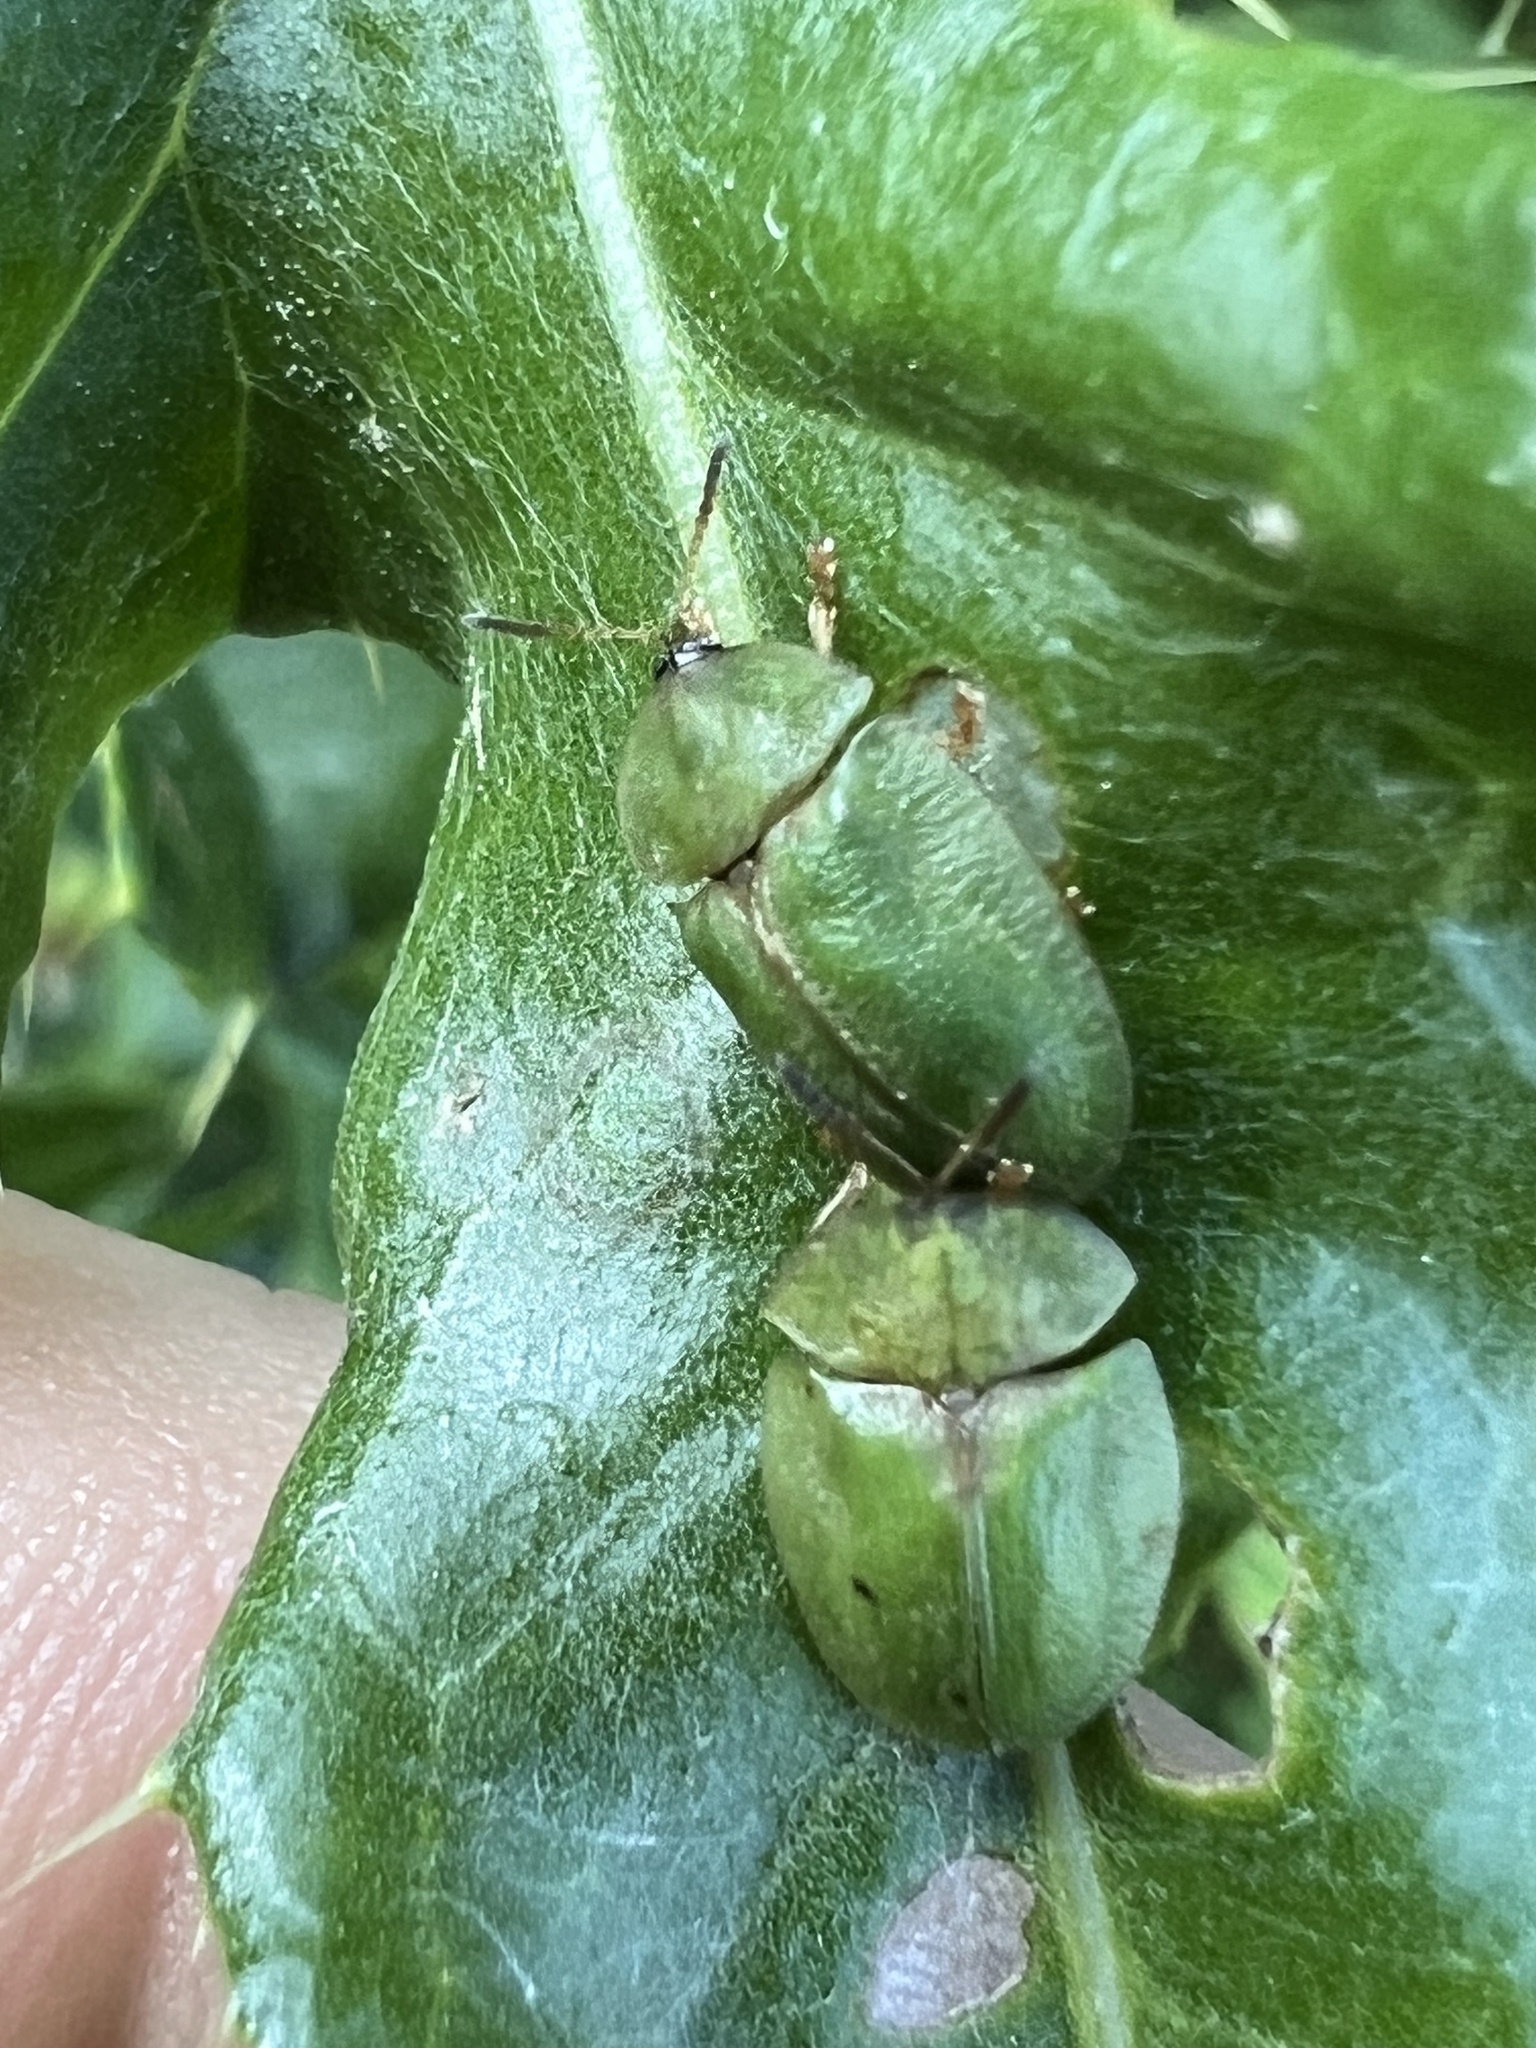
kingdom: Animalia
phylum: Arthropoda
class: Insecta
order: Coleoptera
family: Chrysomelidae
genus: Cassida
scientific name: Cassida rubiginosa
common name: Thistle tortoise beetle
